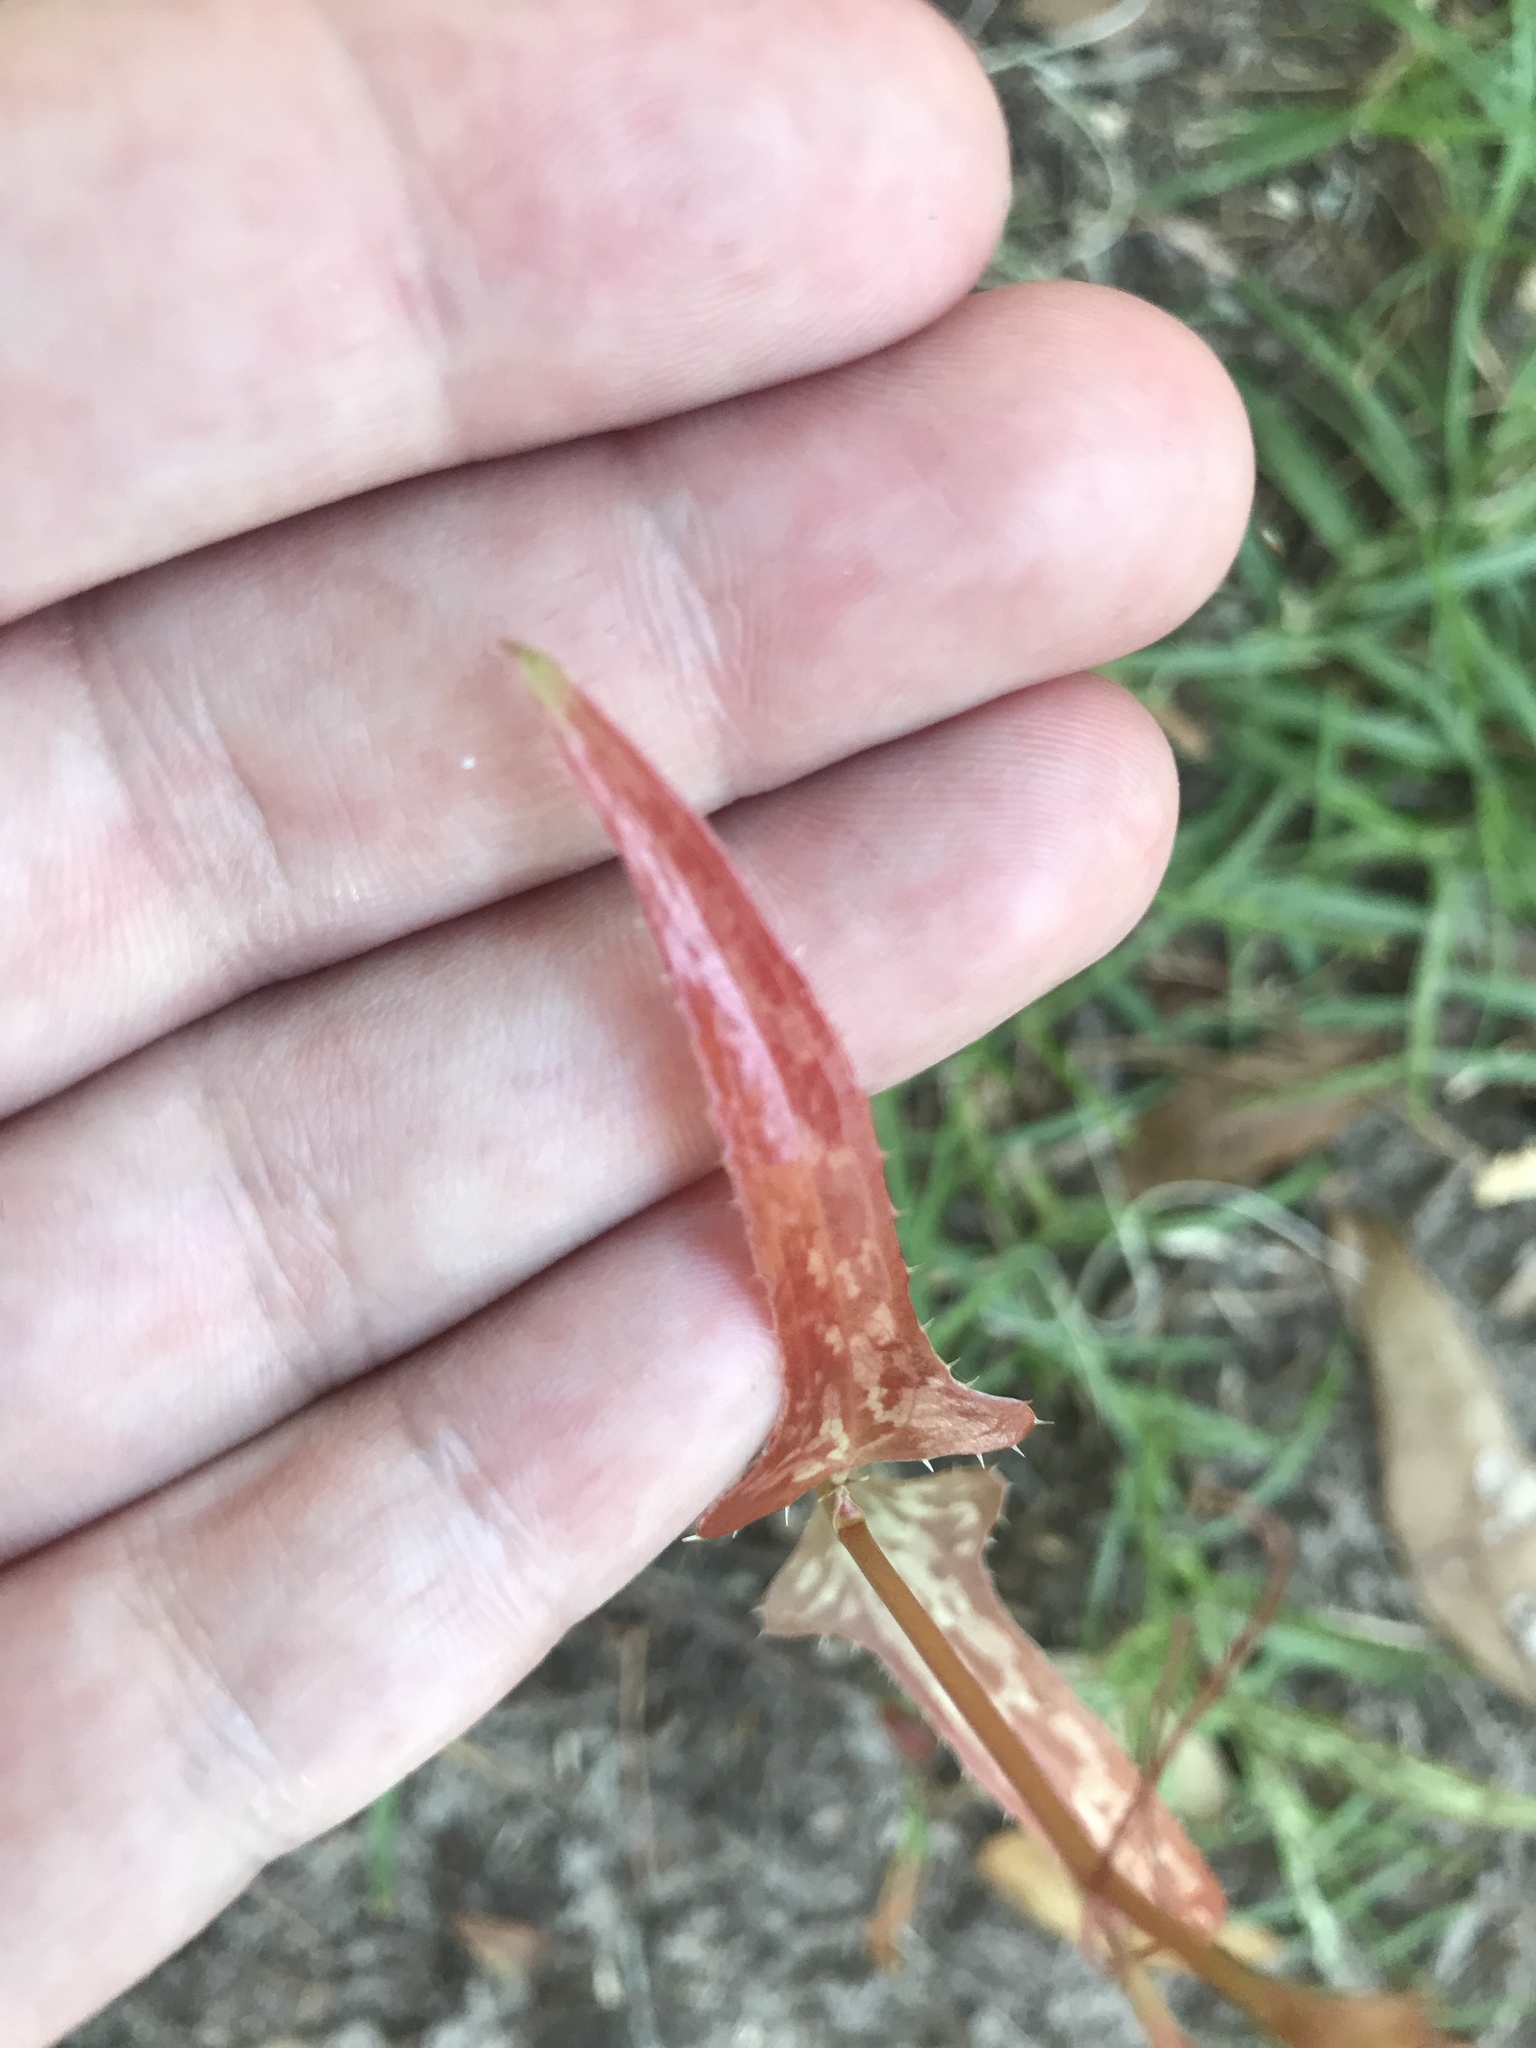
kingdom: Plantae
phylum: Tracheophyta
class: Liliopsida
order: Liliales
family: Smilacaceae
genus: Smilax
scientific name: Smilax bona-nox
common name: Catbrier
